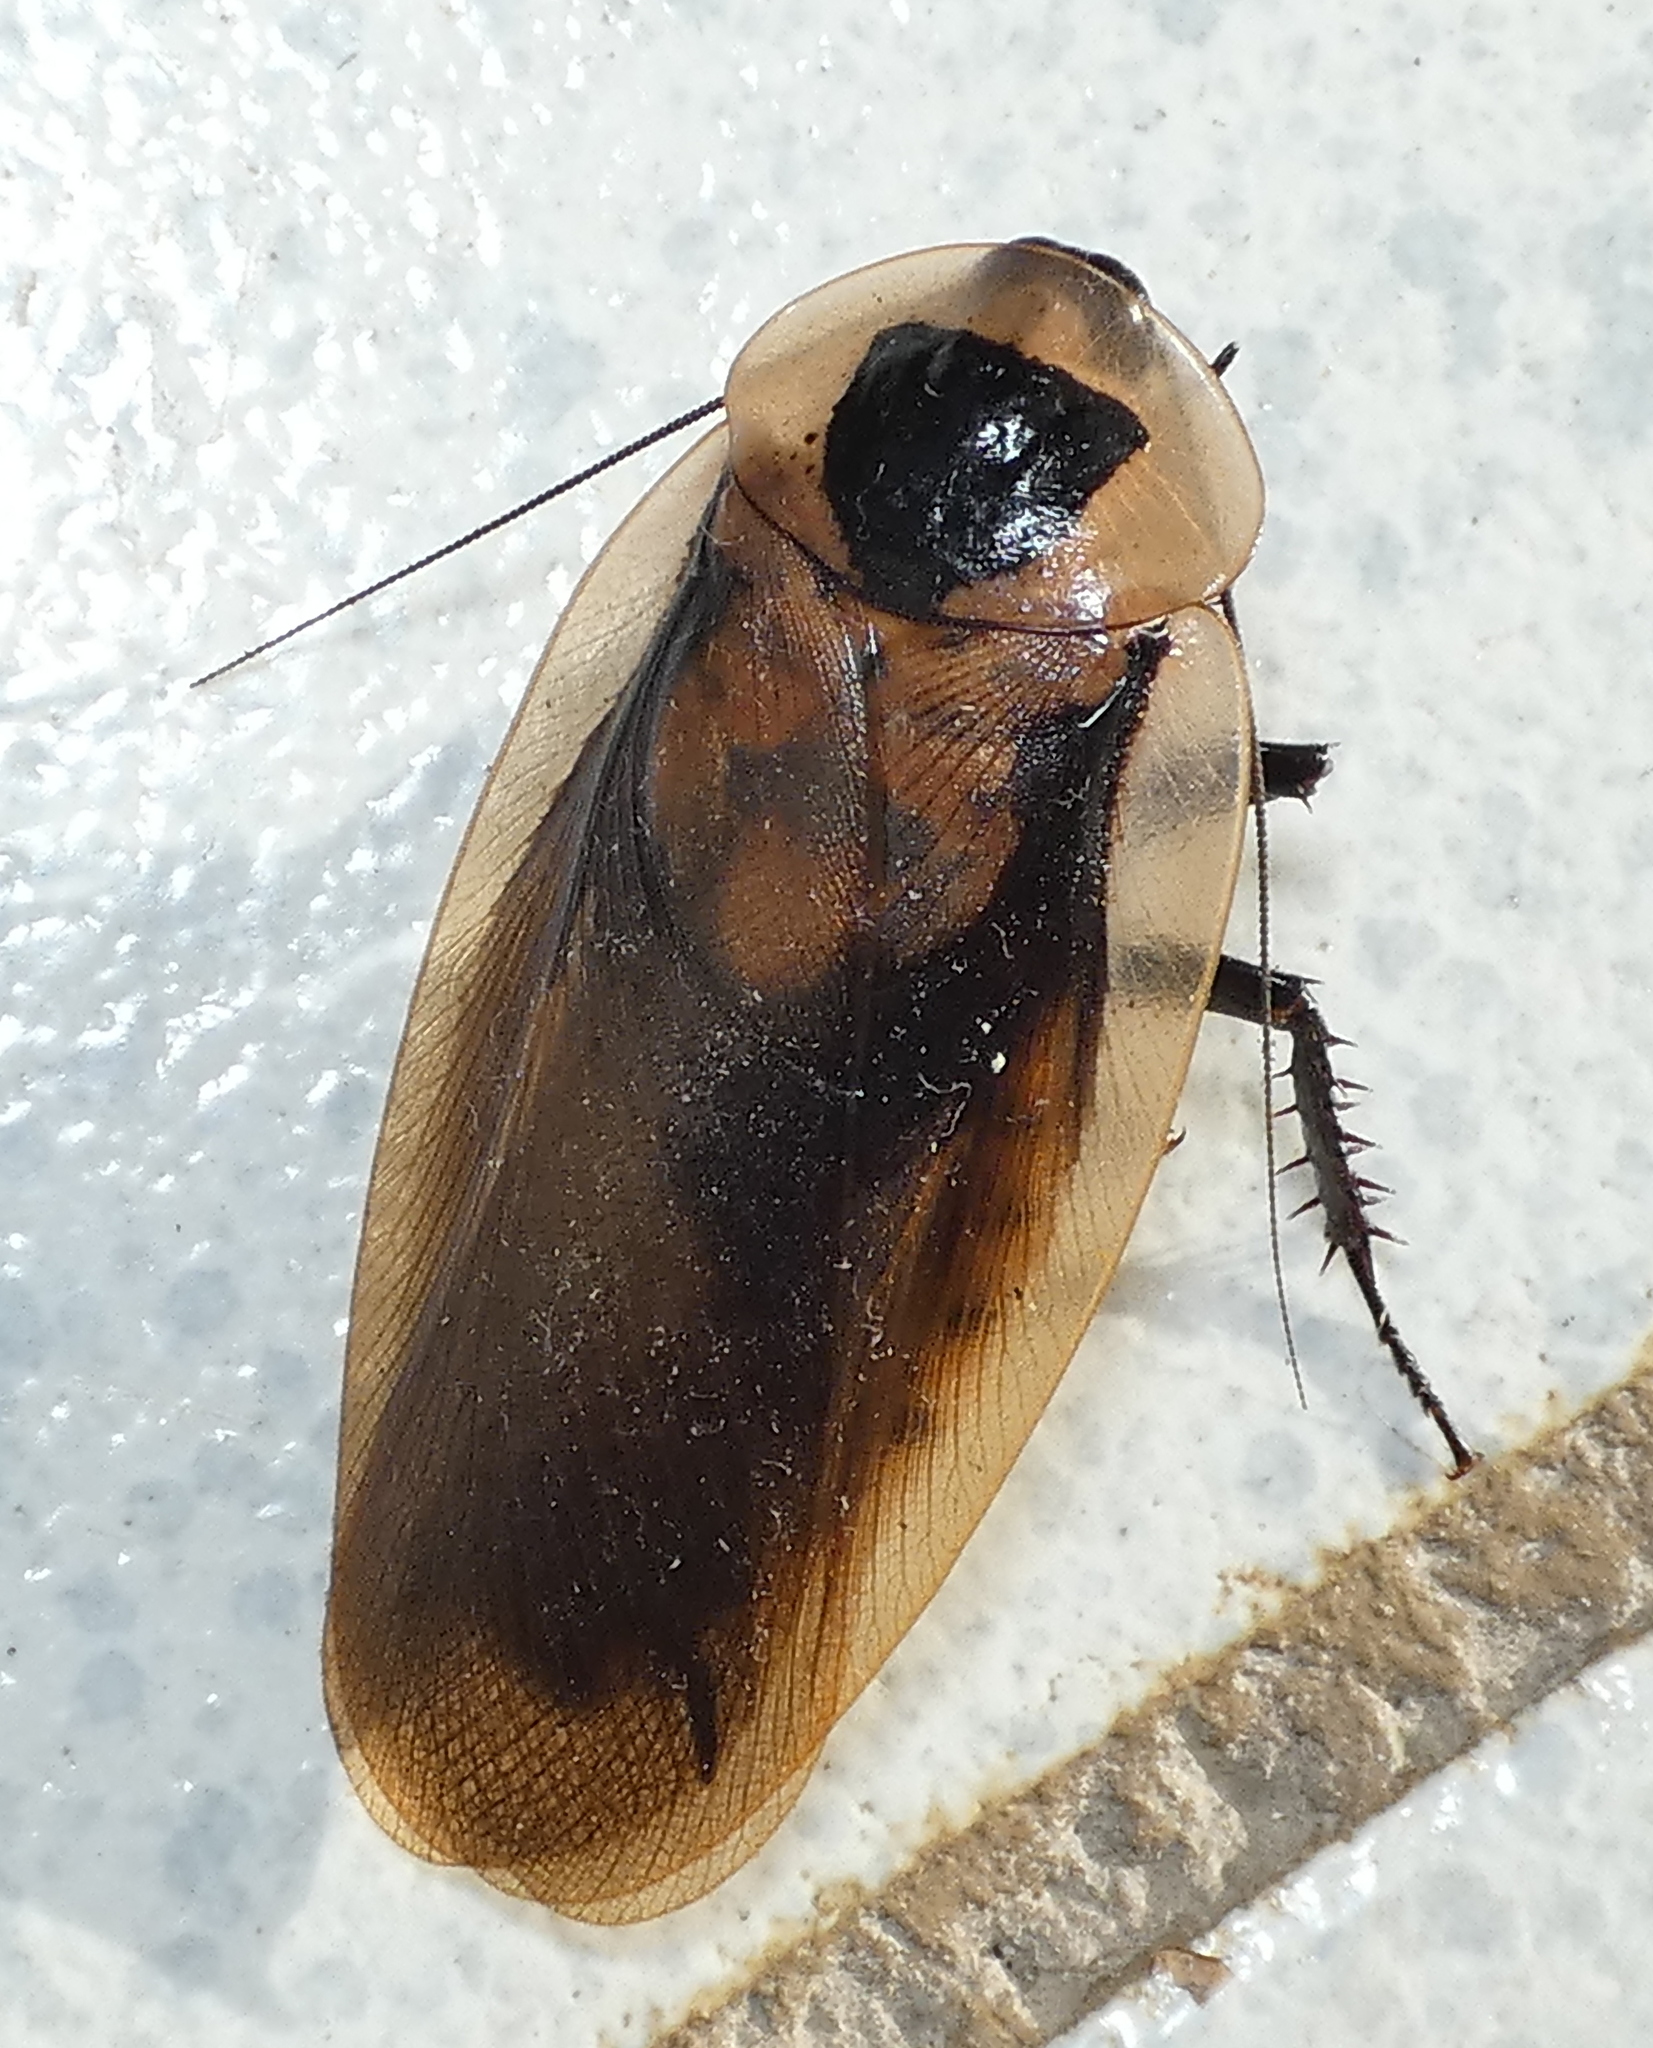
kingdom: Animalia
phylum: Arthropoda
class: Insecta
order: Blattodea
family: Blaberidae
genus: Blaberus
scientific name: Blaberus giganteus
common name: Giant cave cockroach
